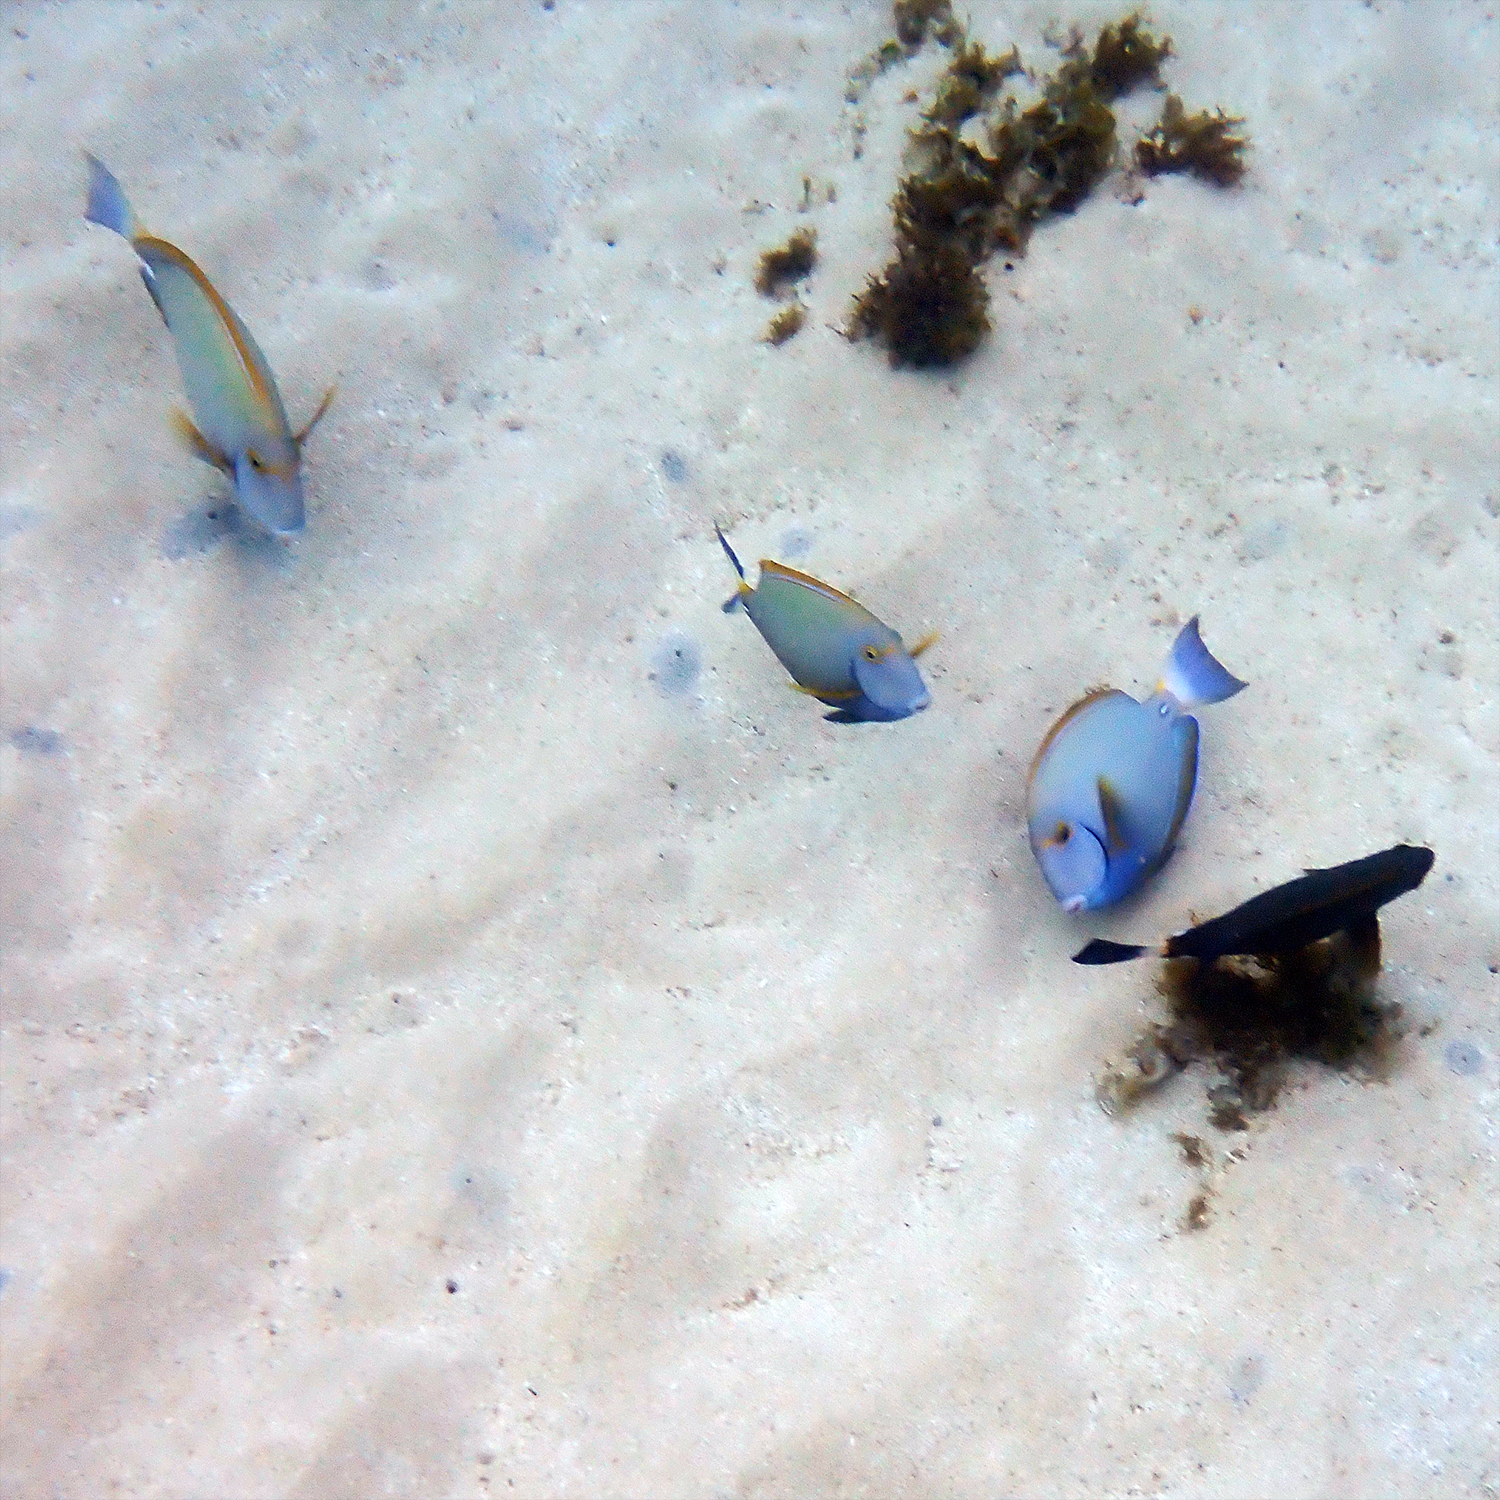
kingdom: Animalia
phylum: Chordata
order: Perciformes
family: Acanthuridae
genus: Acanthurus
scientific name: Acanthurus dussumieri
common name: Dussumier's surgeonfish
